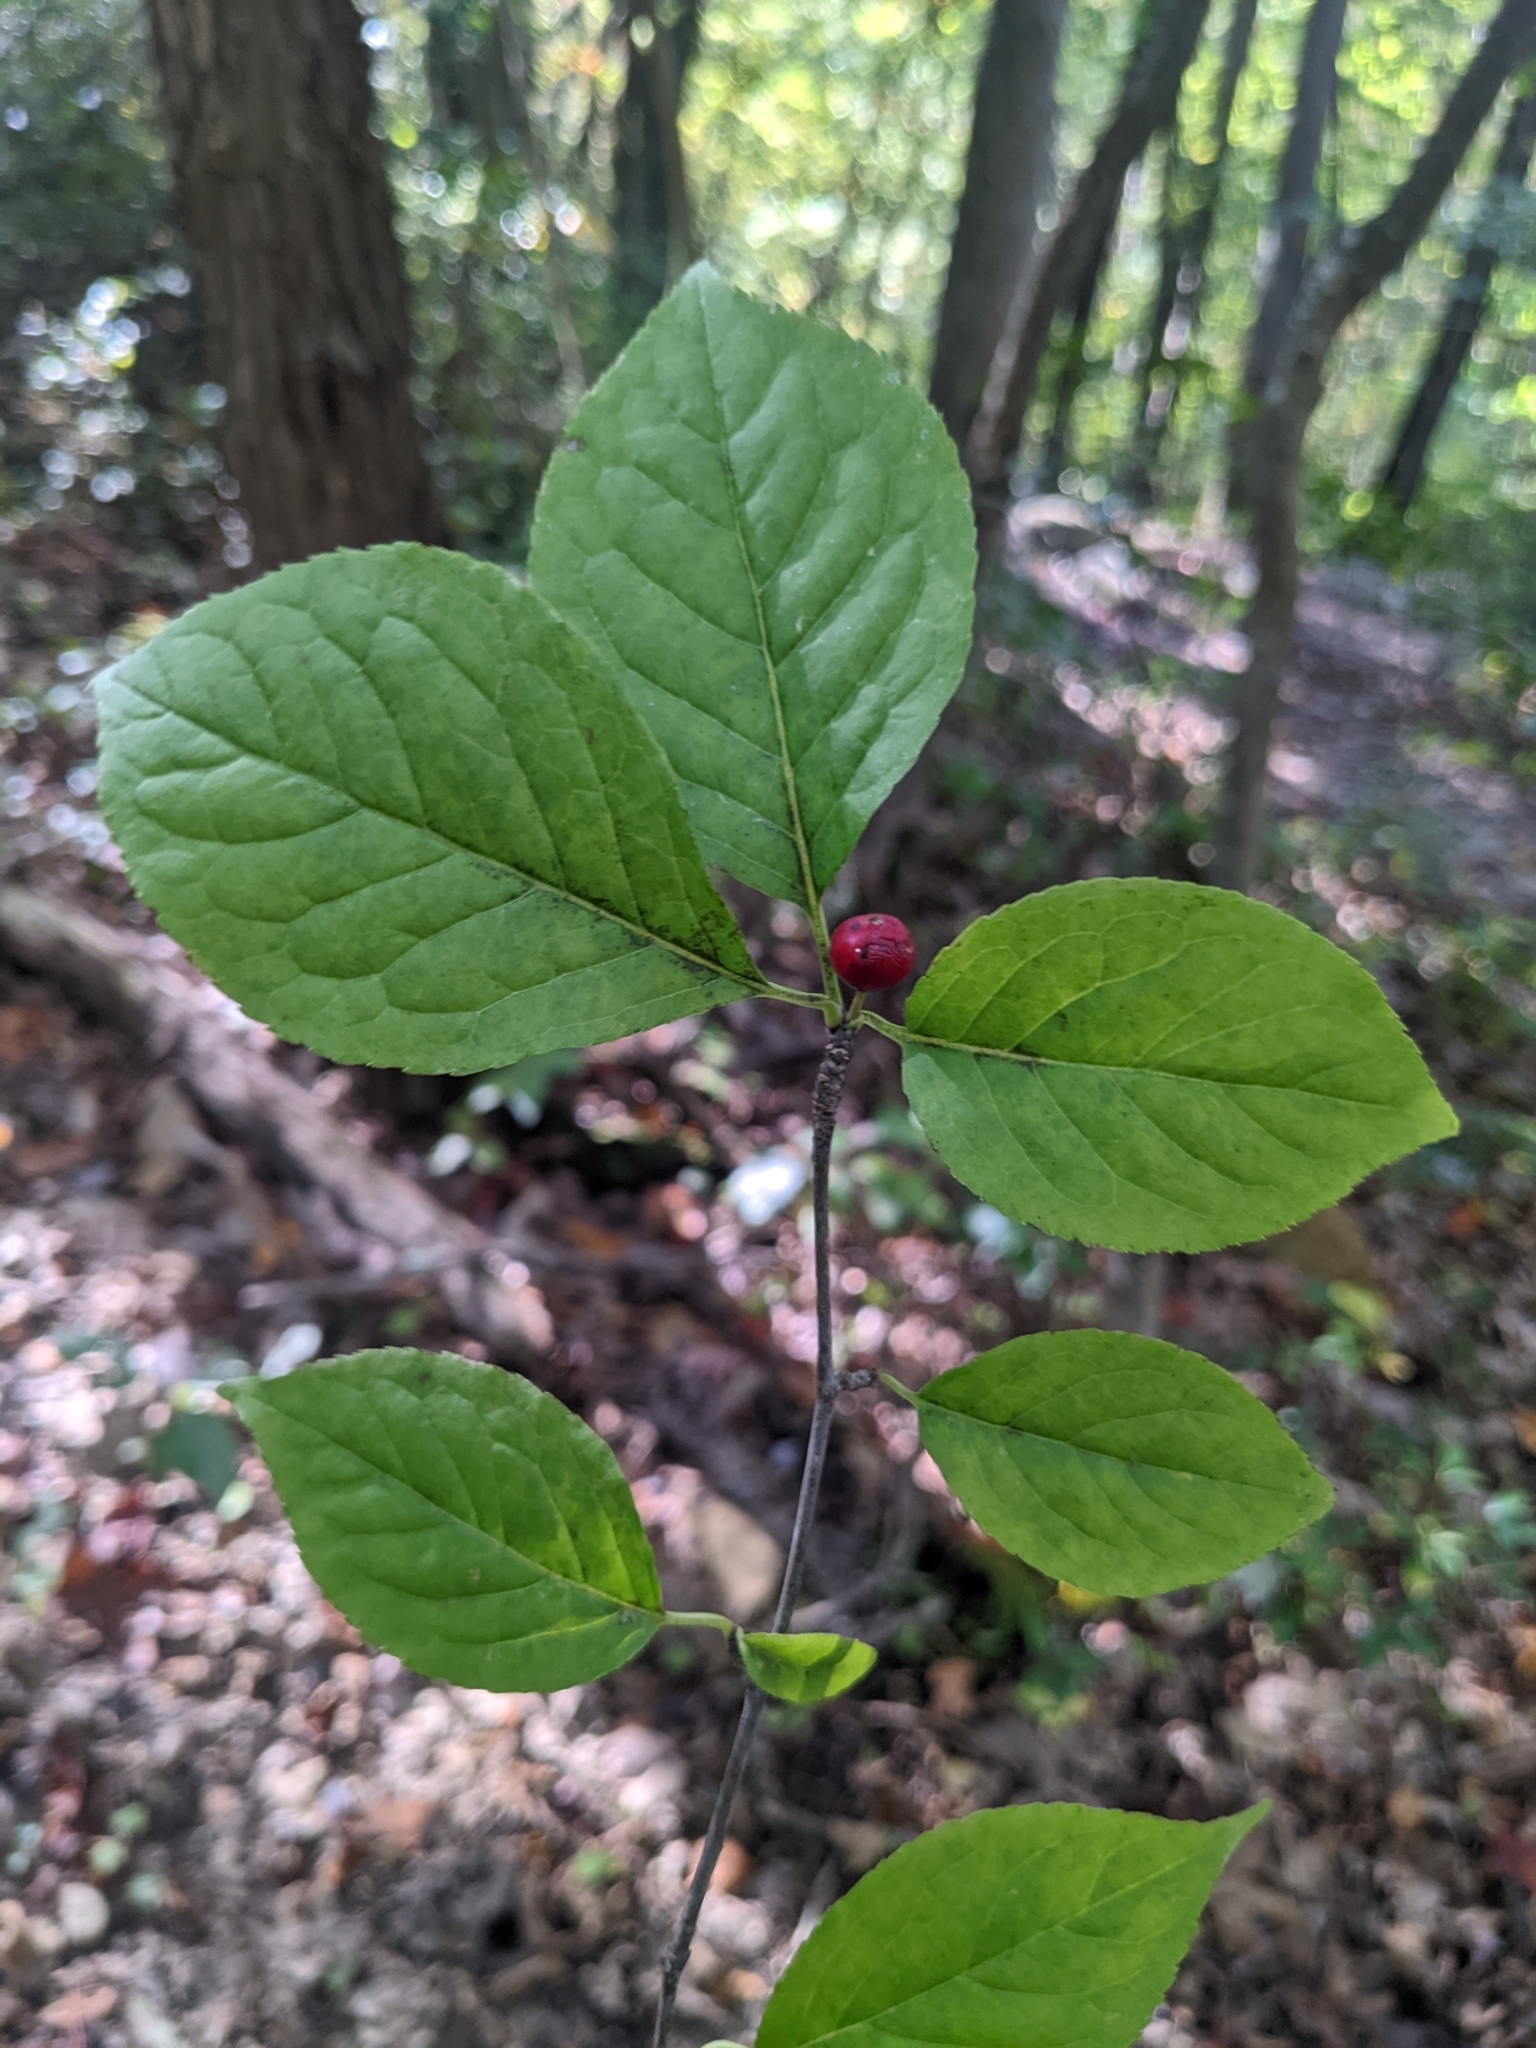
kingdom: Plantae
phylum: Tracheophyta
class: Magnoliopsida
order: Aquifoliales
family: Aquifoliaceae
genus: Ilex
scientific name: Ilex montana
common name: Mountain winterberry
